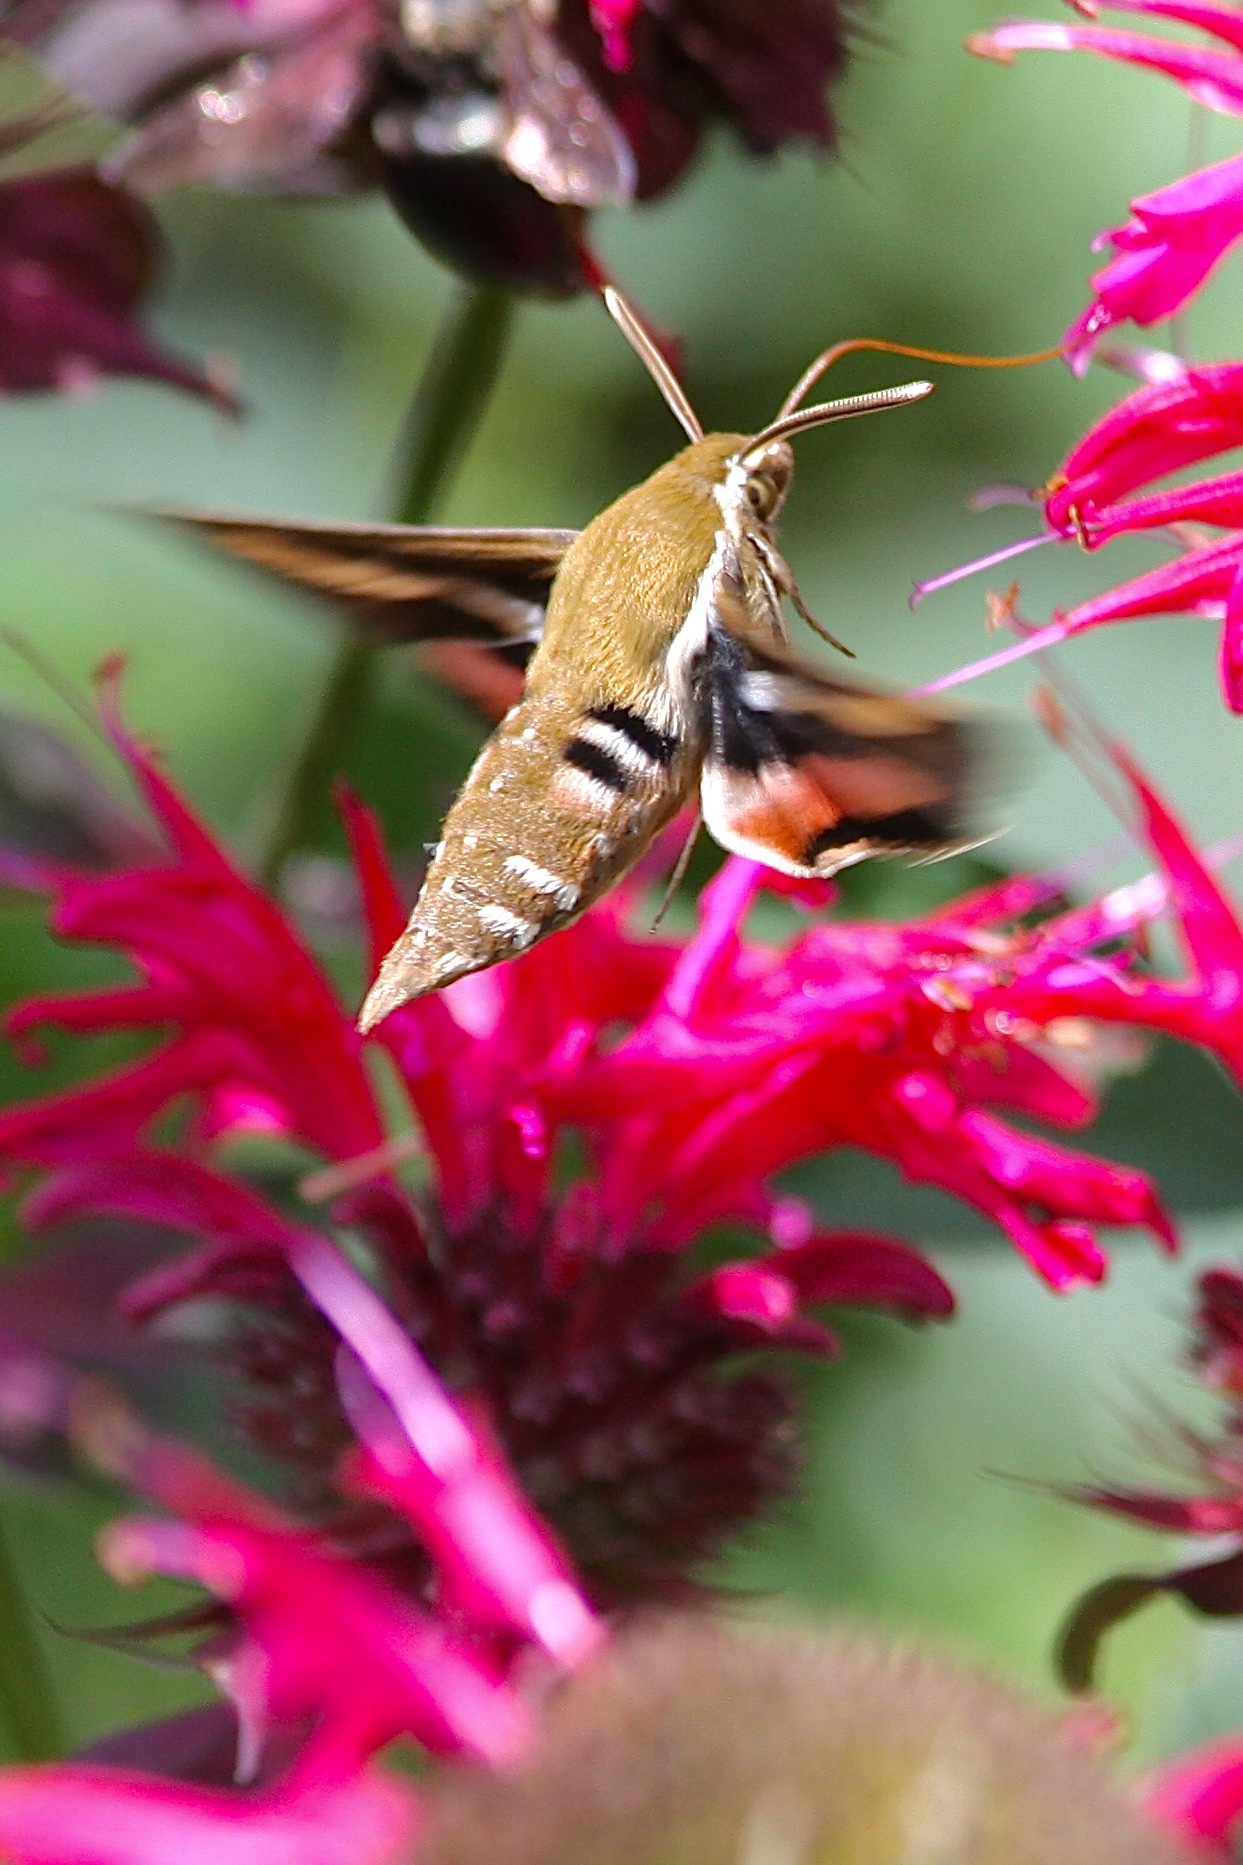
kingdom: Animalia
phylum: Arthropoda
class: Insecta
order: Lepidoptera
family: Sphingidae
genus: Hyles
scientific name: Hyles gallii
